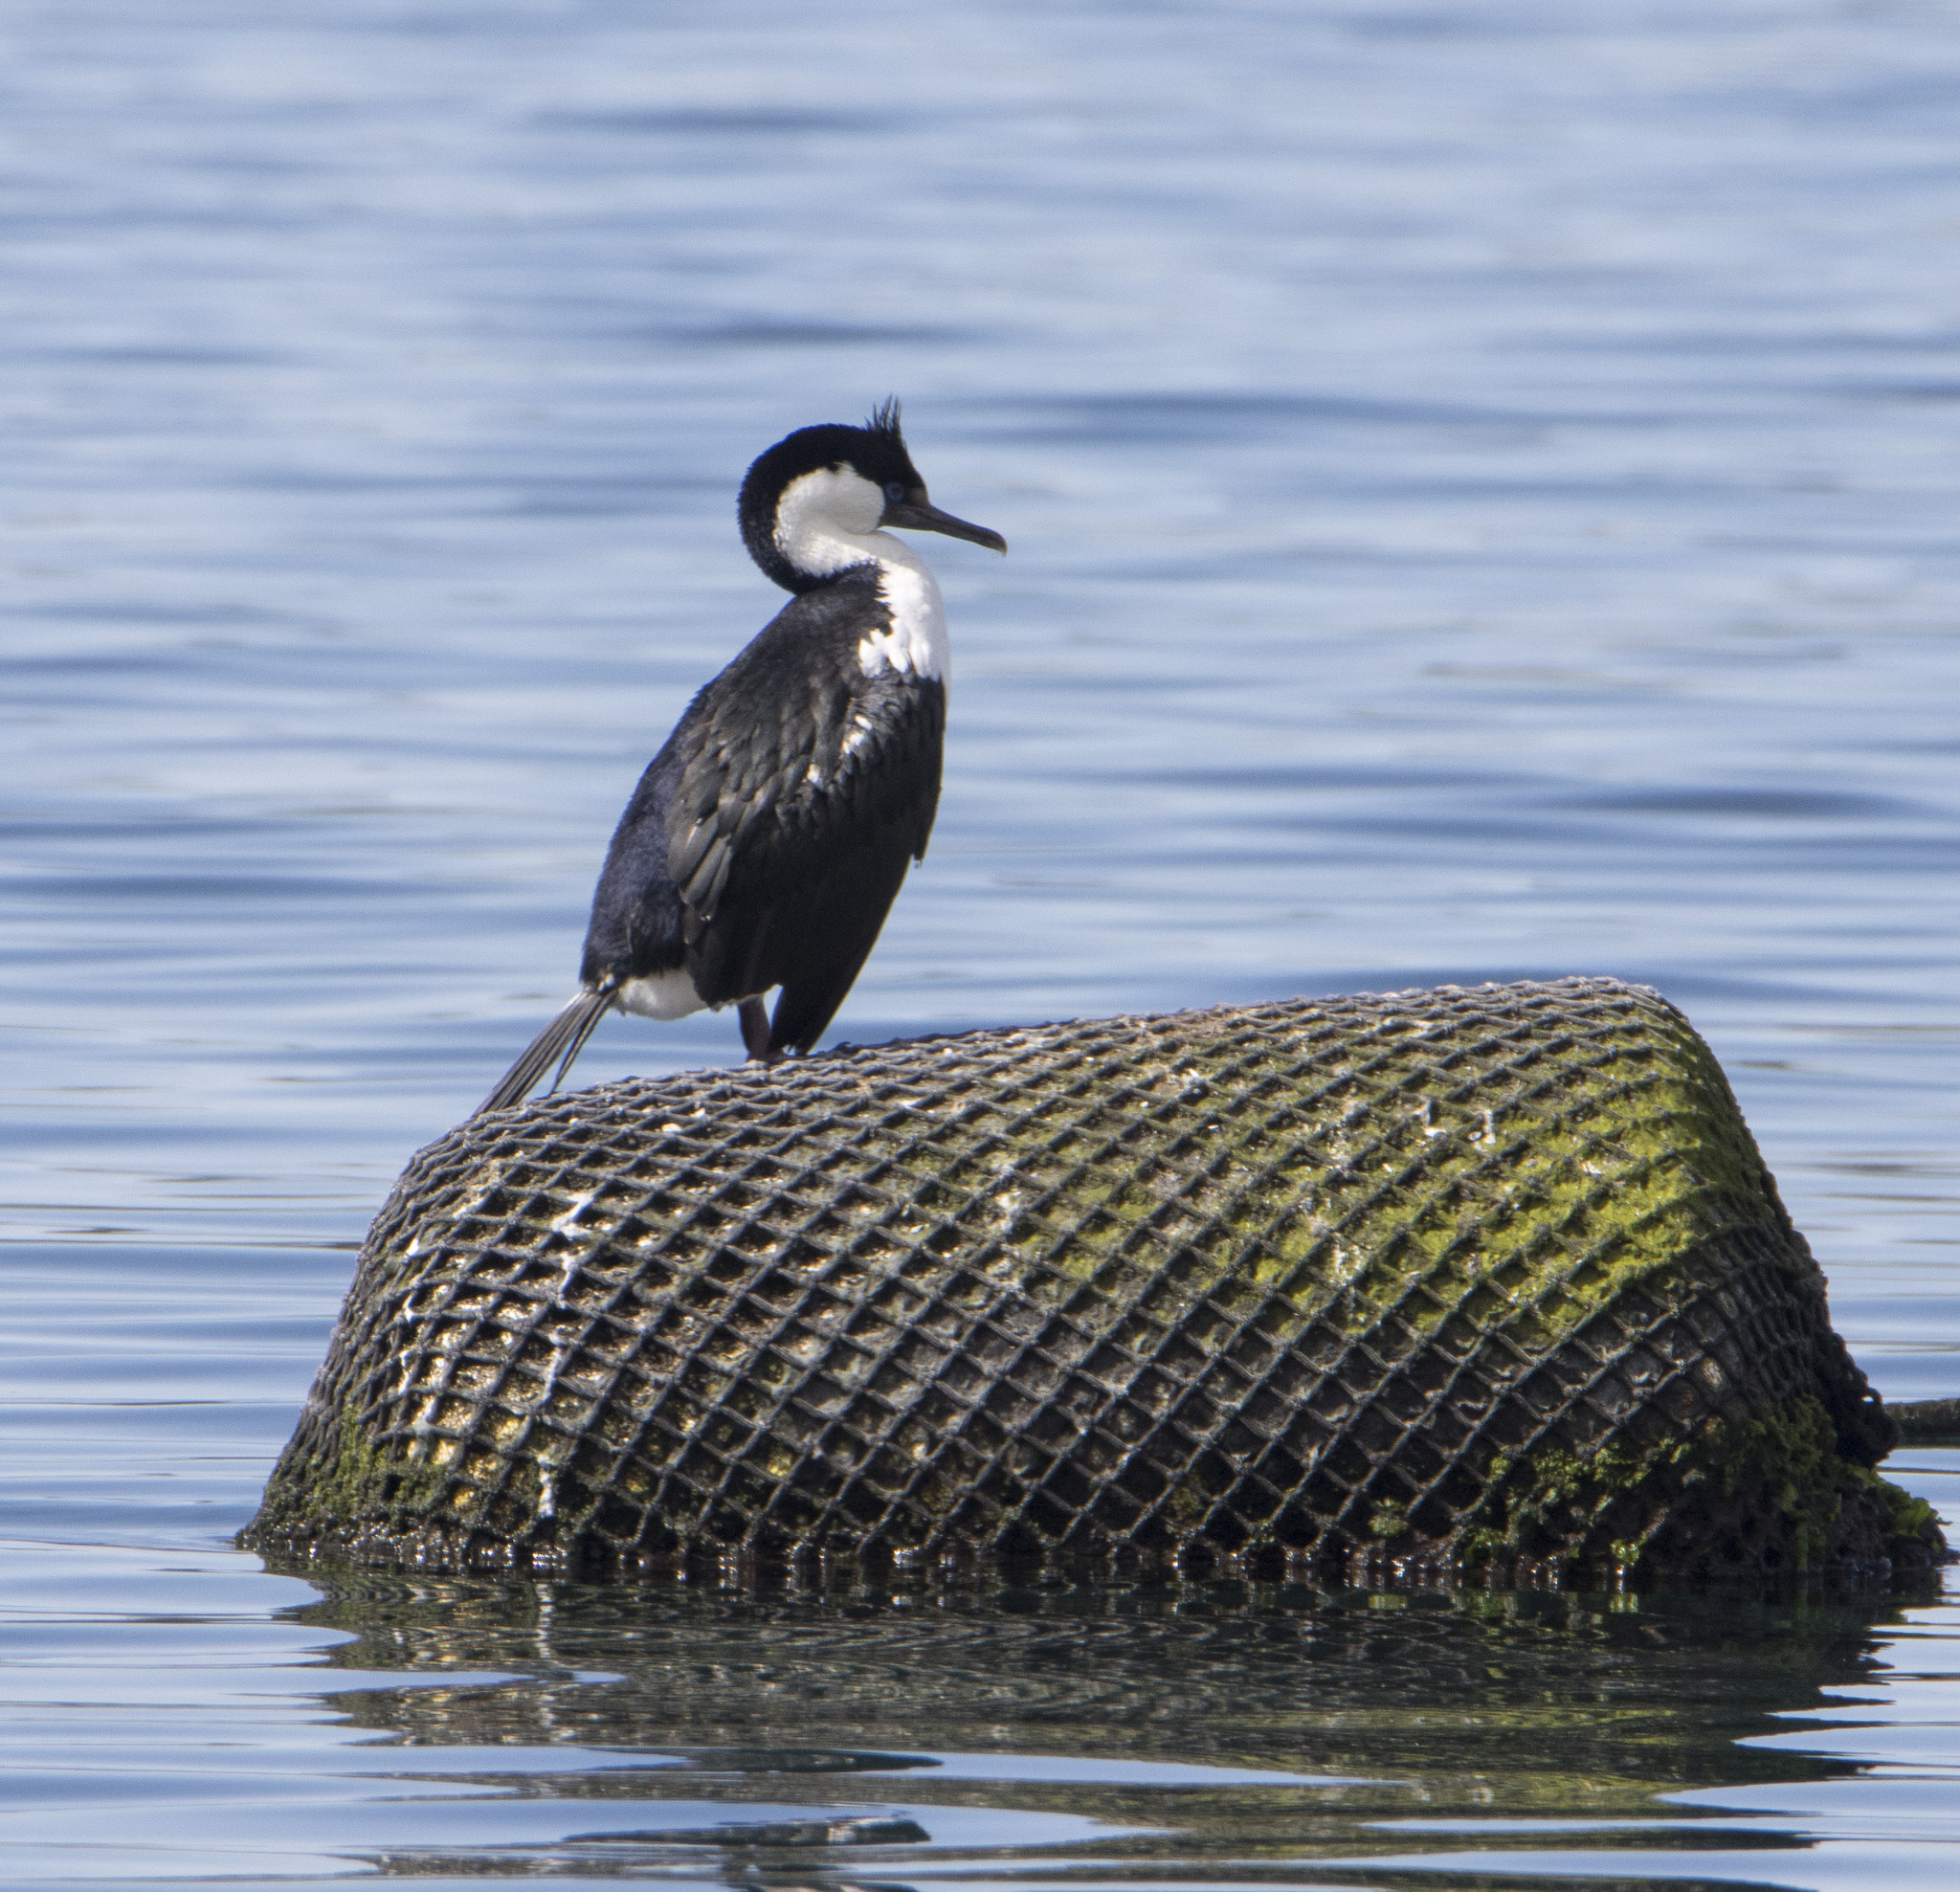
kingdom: Animalia
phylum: Chordata
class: Aves
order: Suliformes
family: Phalacrocoracidae
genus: Leucocarbo
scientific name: Leucocarbo atriceps
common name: Imperial shag
